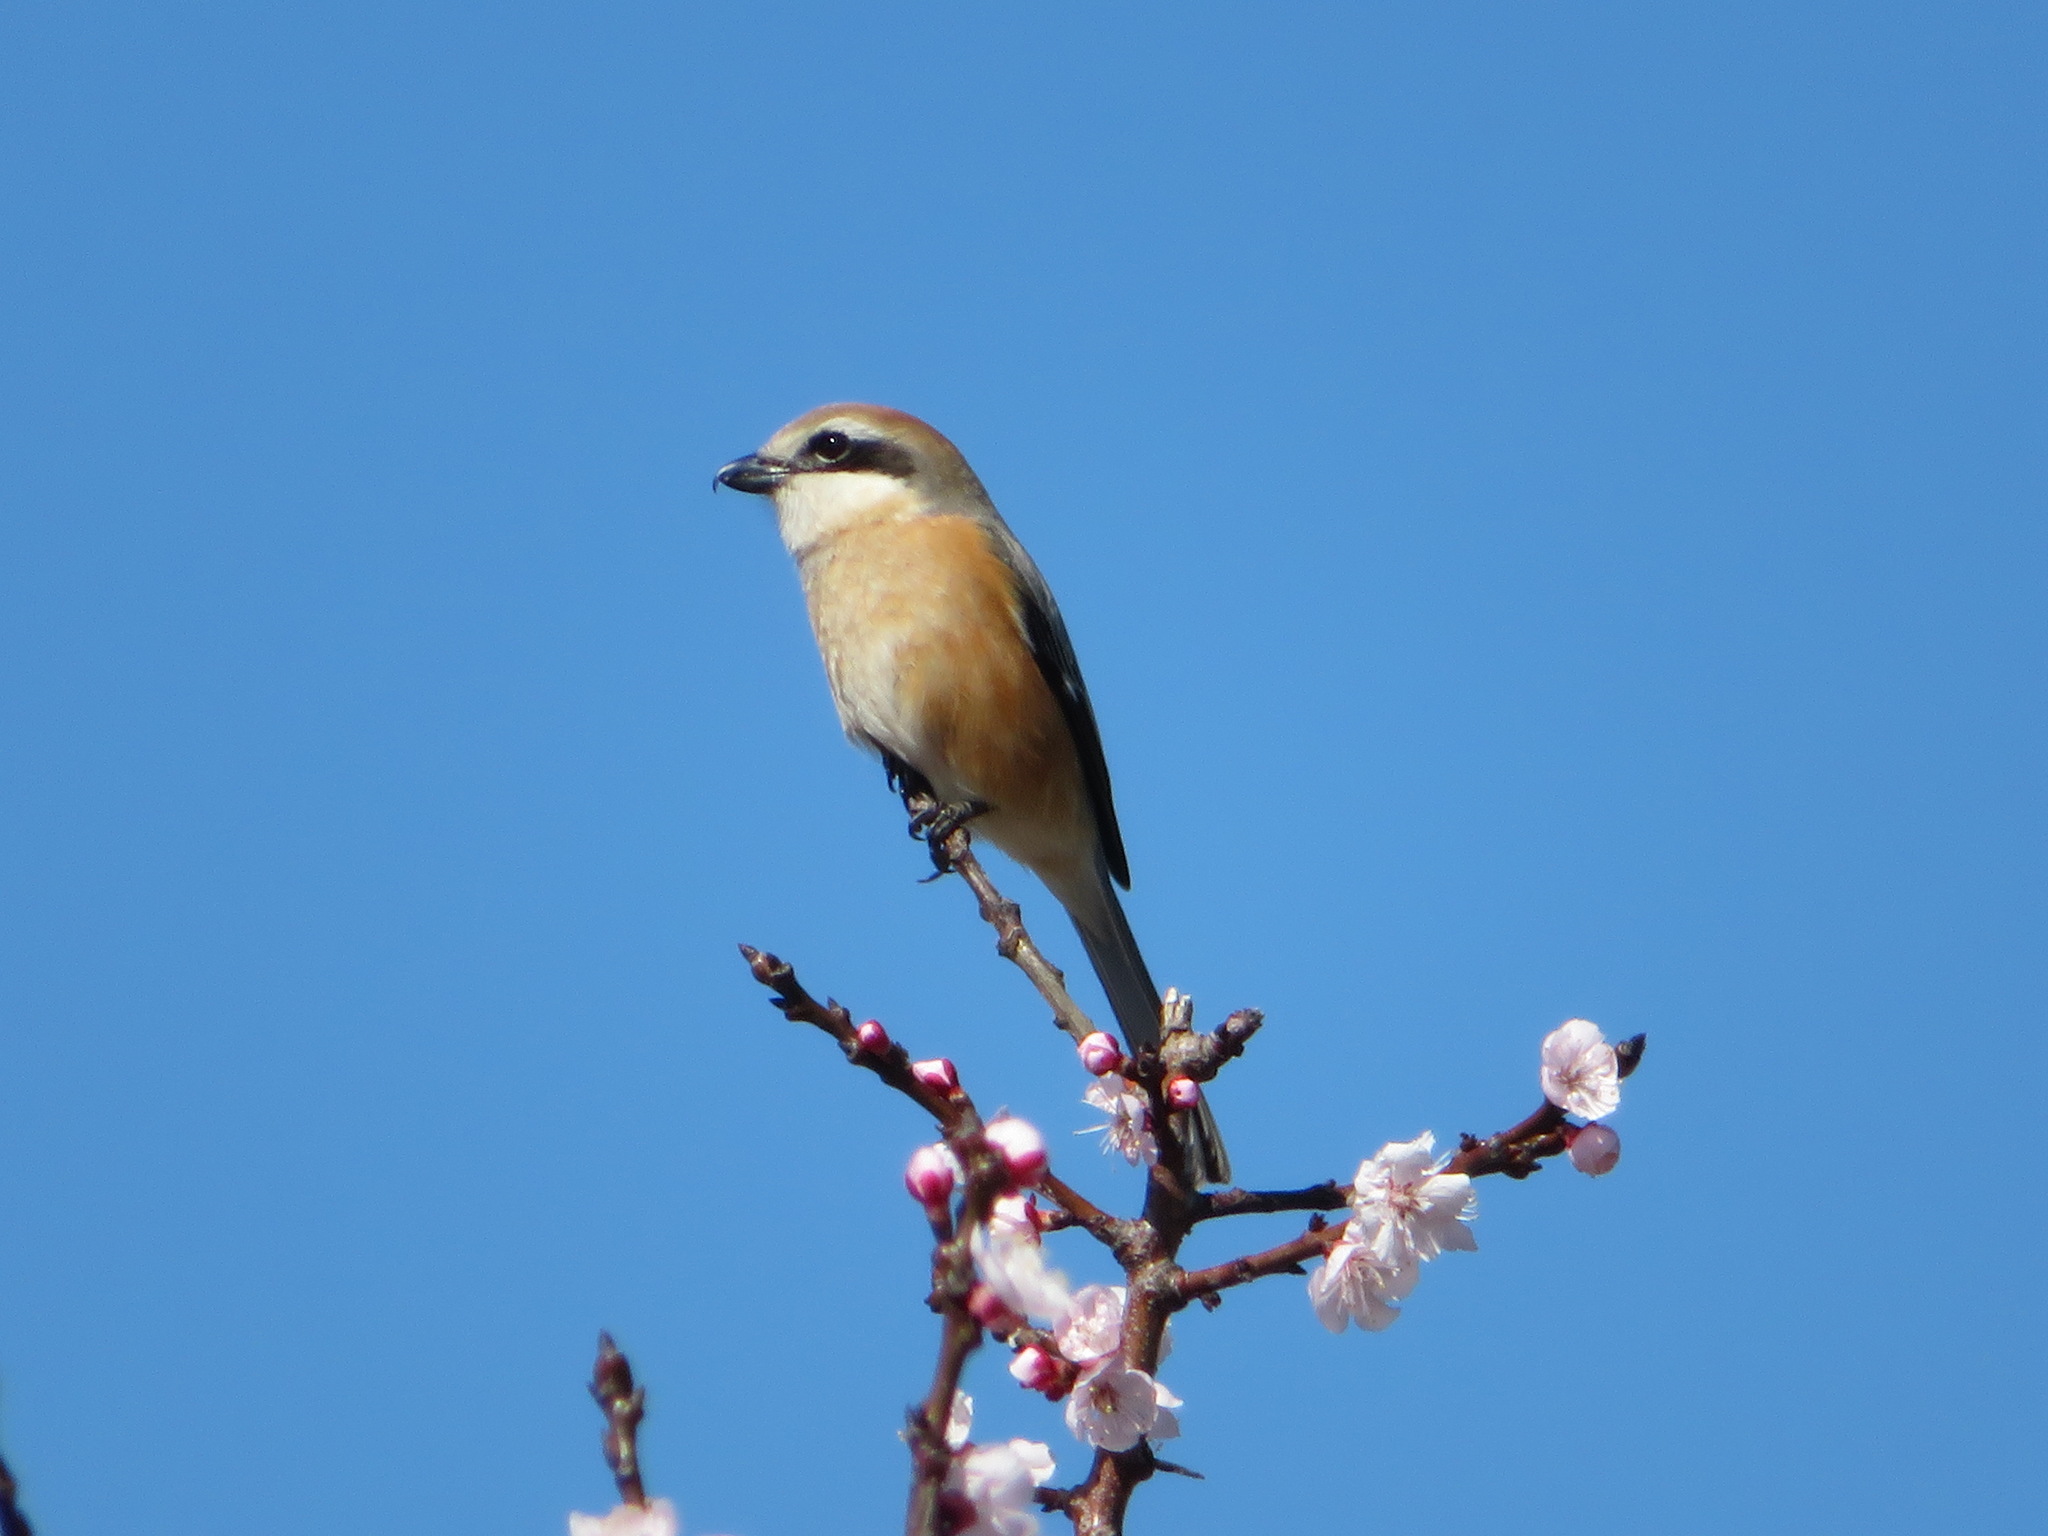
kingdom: Animalia
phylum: Chordata
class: Aves
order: Passeriformes
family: Laniidae
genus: Lanius
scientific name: Lanius bucephalus
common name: Bull-headed shrike
